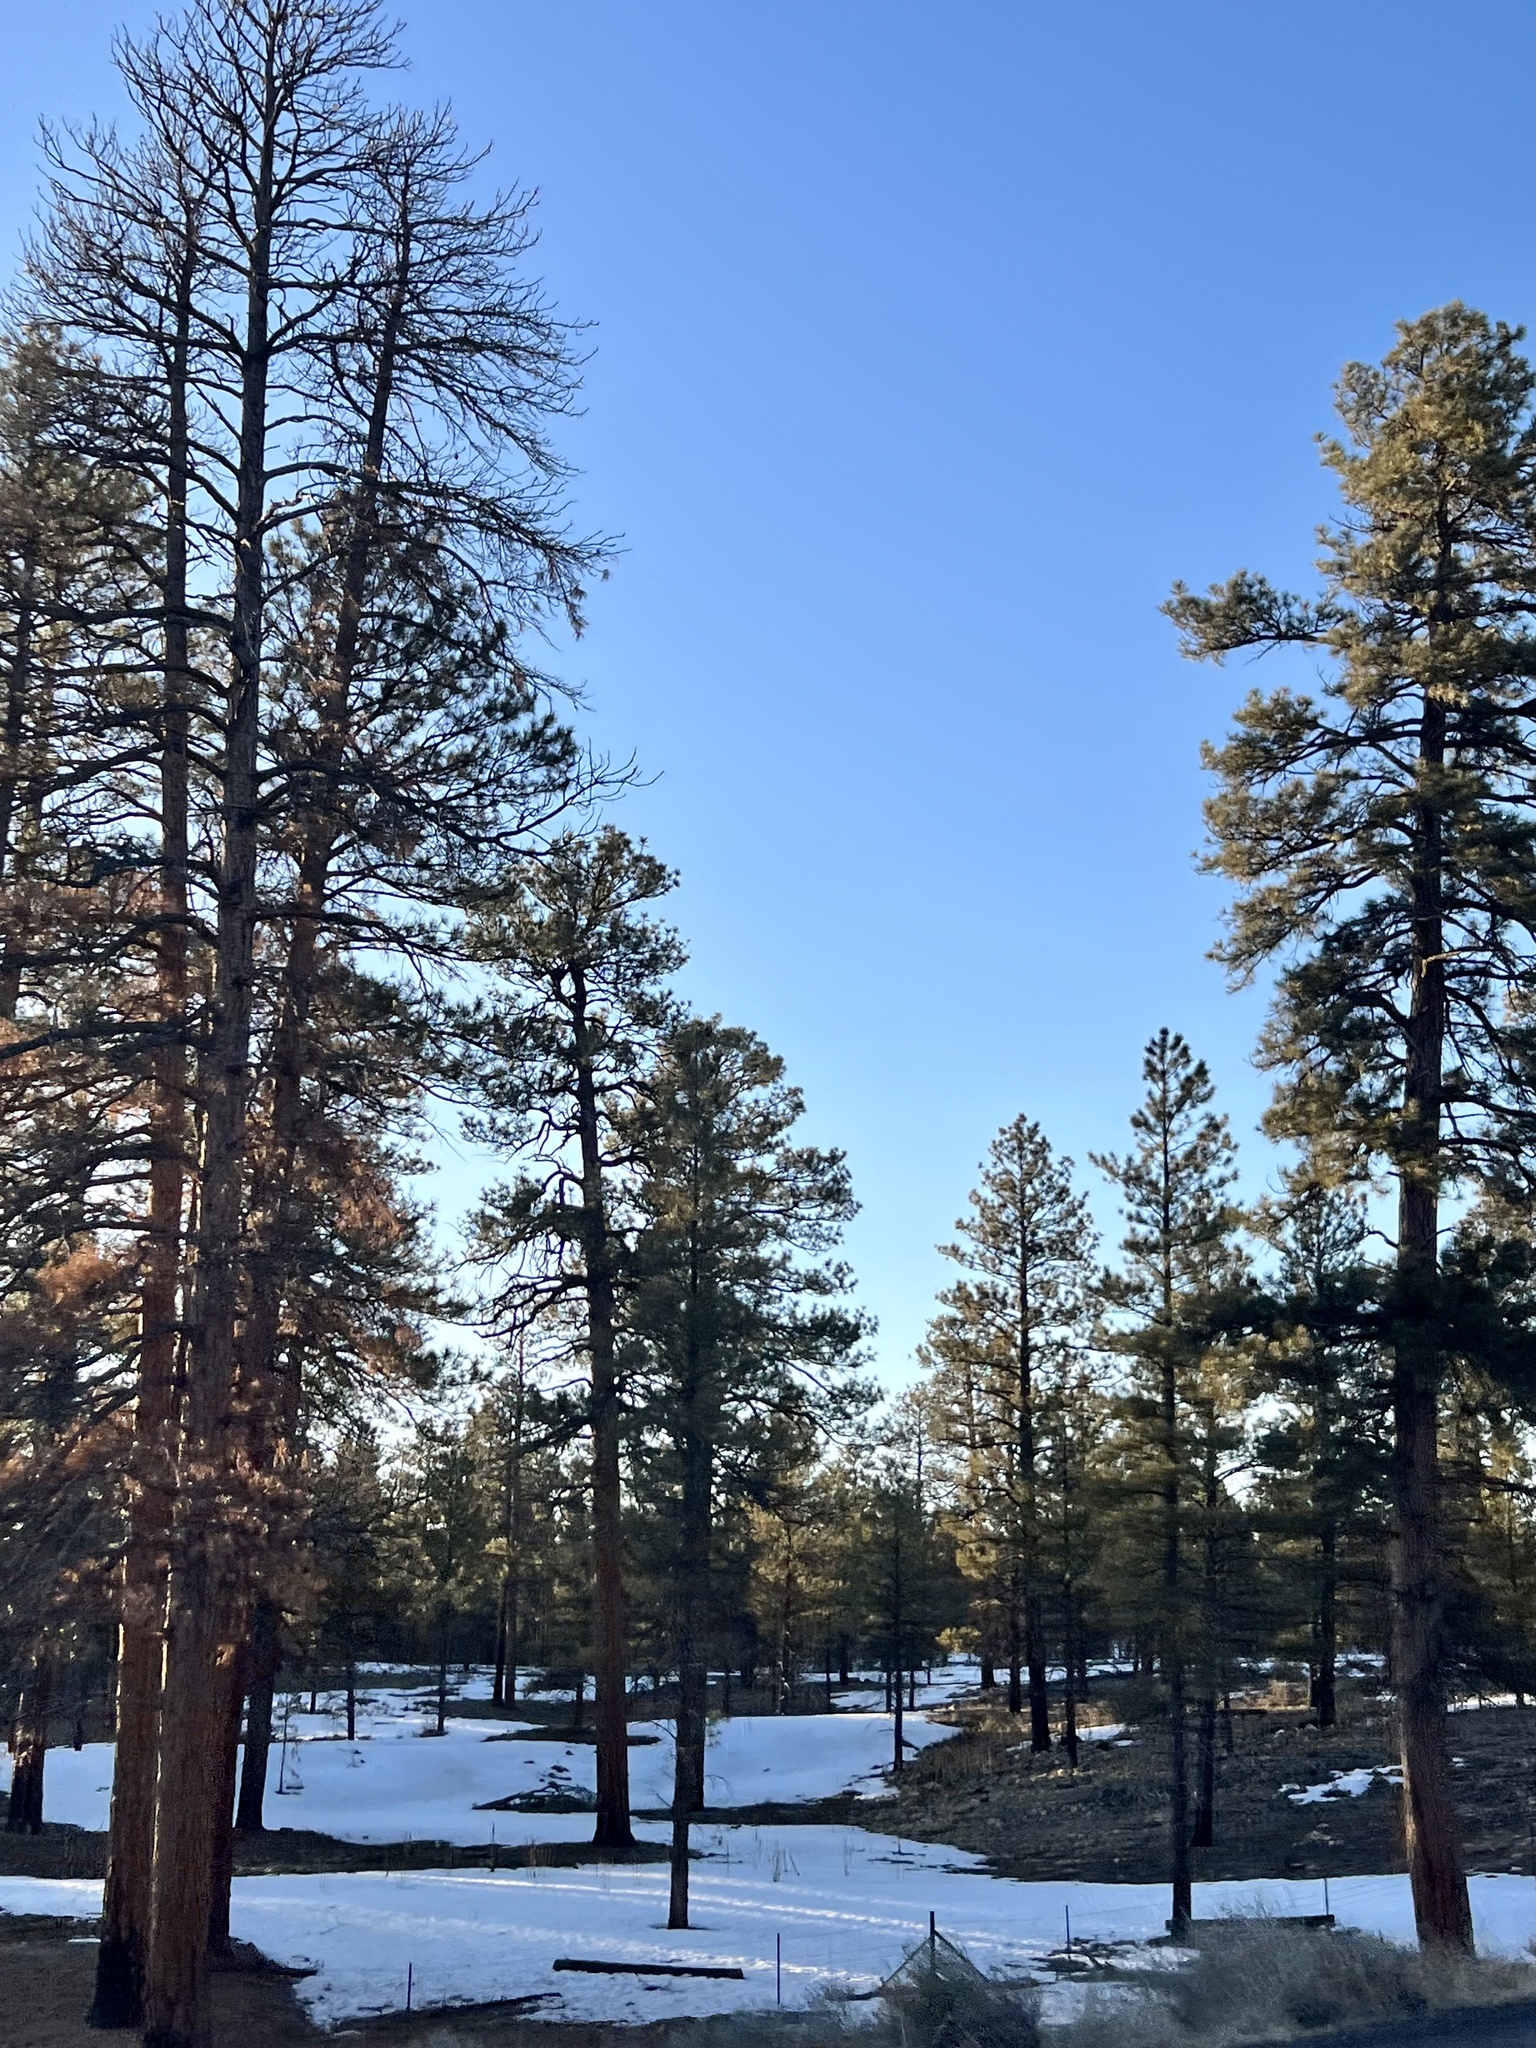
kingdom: Plantae
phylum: Tracheophyta
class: Pinopsida
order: Pinales
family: Pinaceae
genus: Pinus
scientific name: Pinus ponderosa
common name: Western yellow-pine
